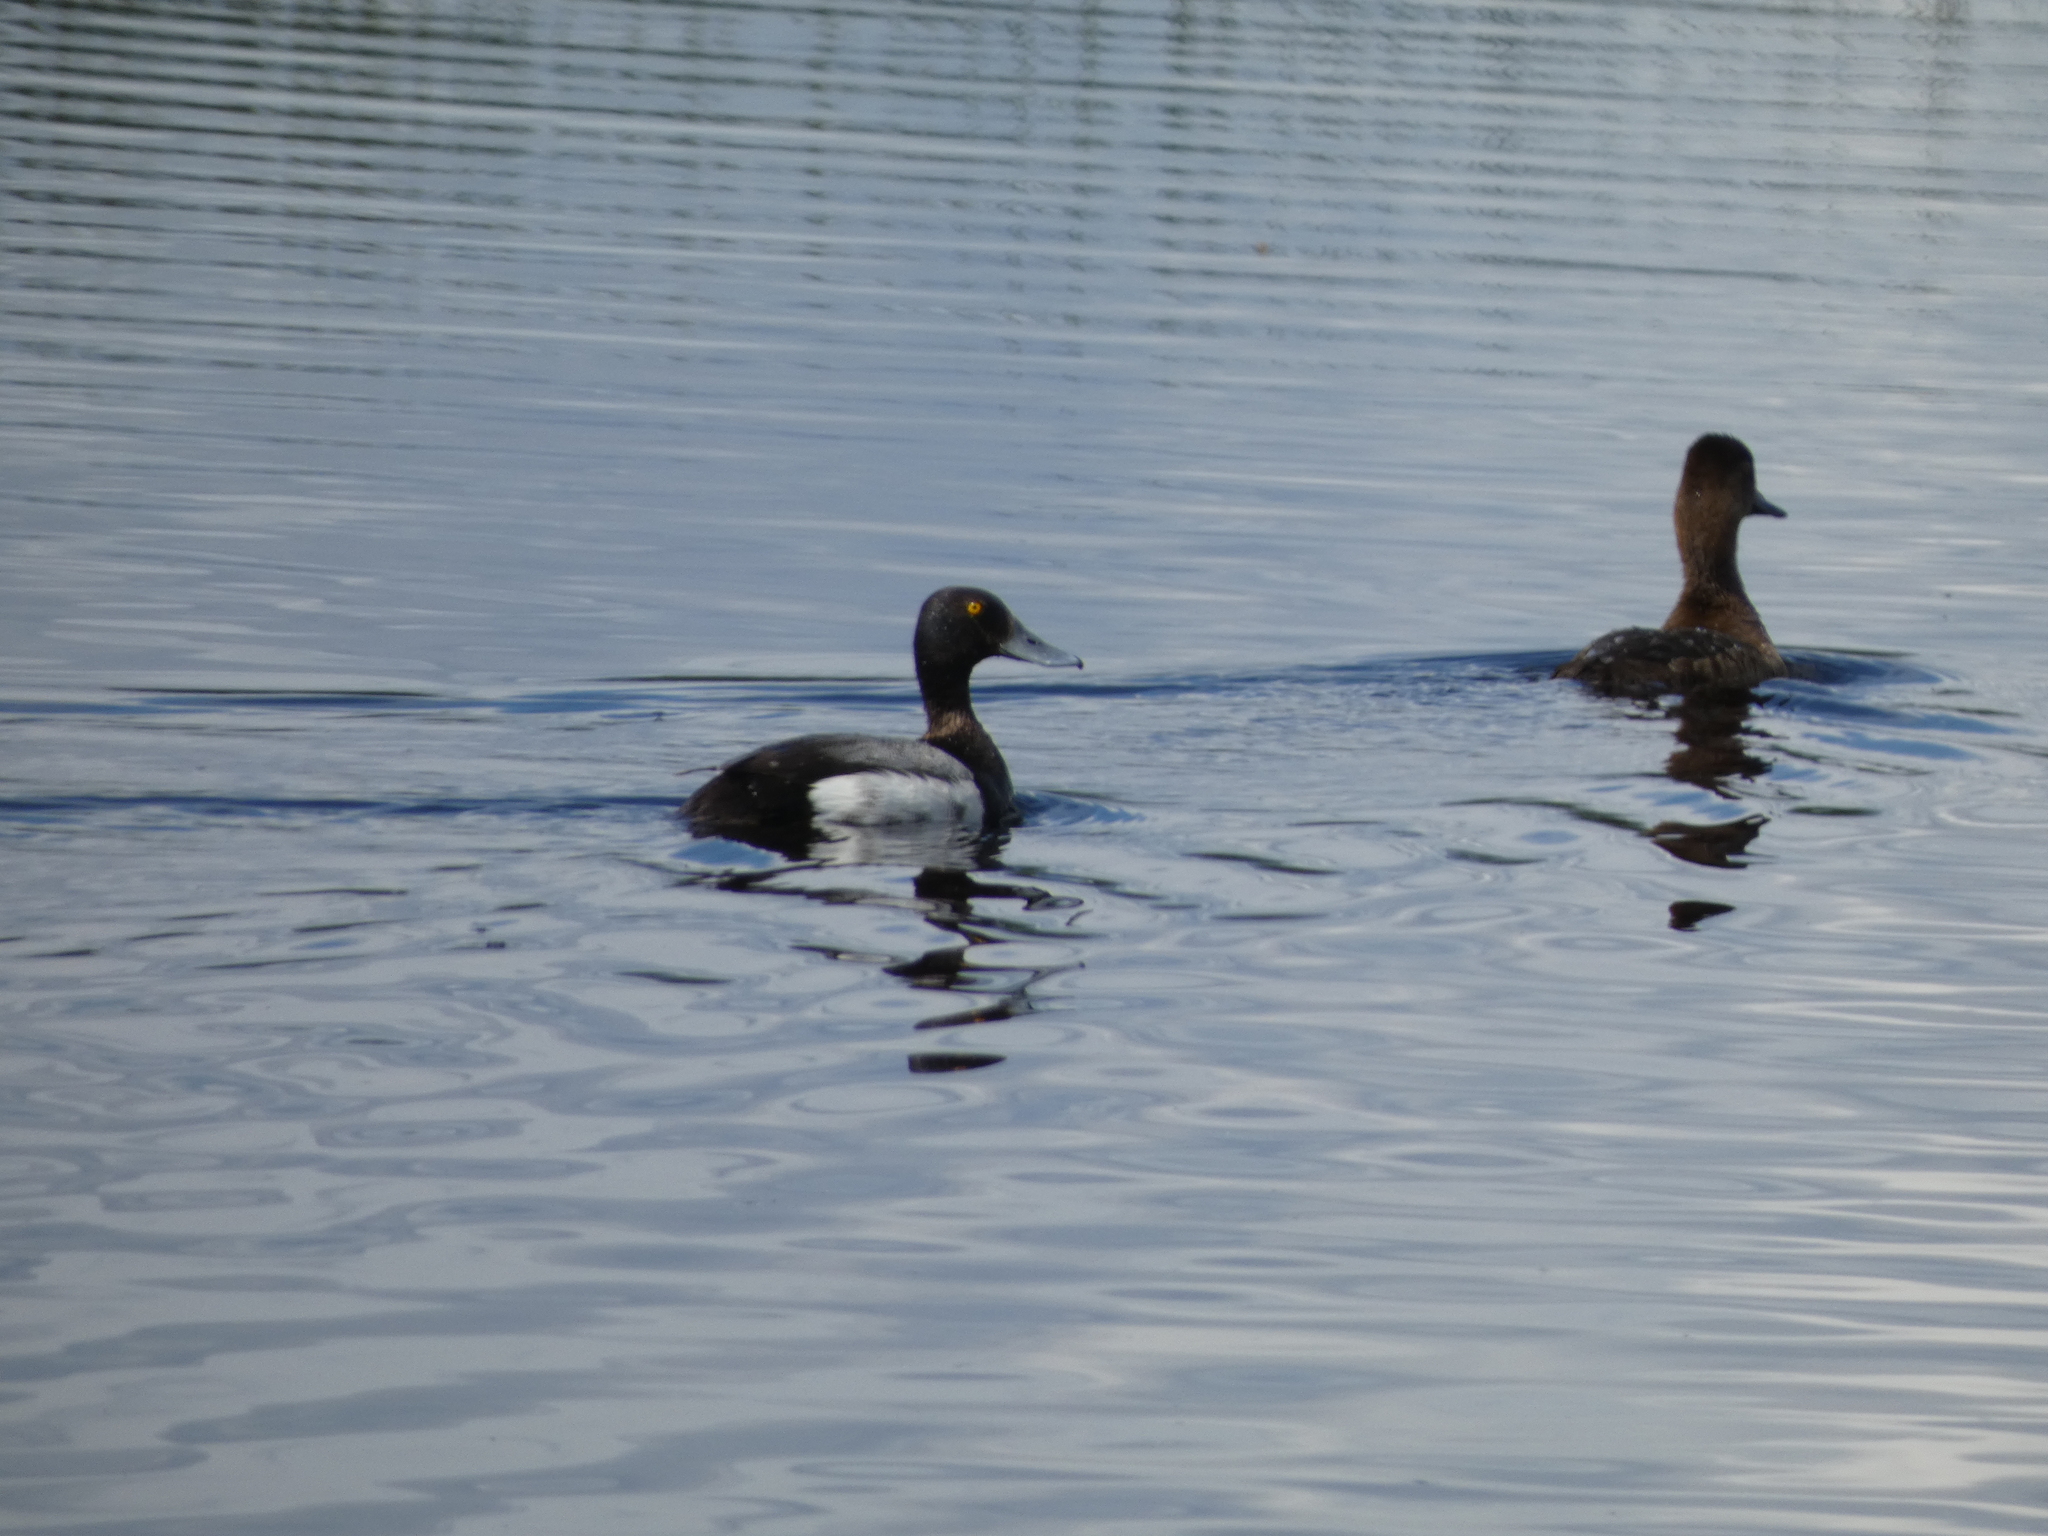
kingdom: Animalia
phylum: Chordata
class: Aves
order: Anseriformes
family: Anatidae
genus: Aythya
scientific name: Aythya affinis
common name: Lesser scaup
